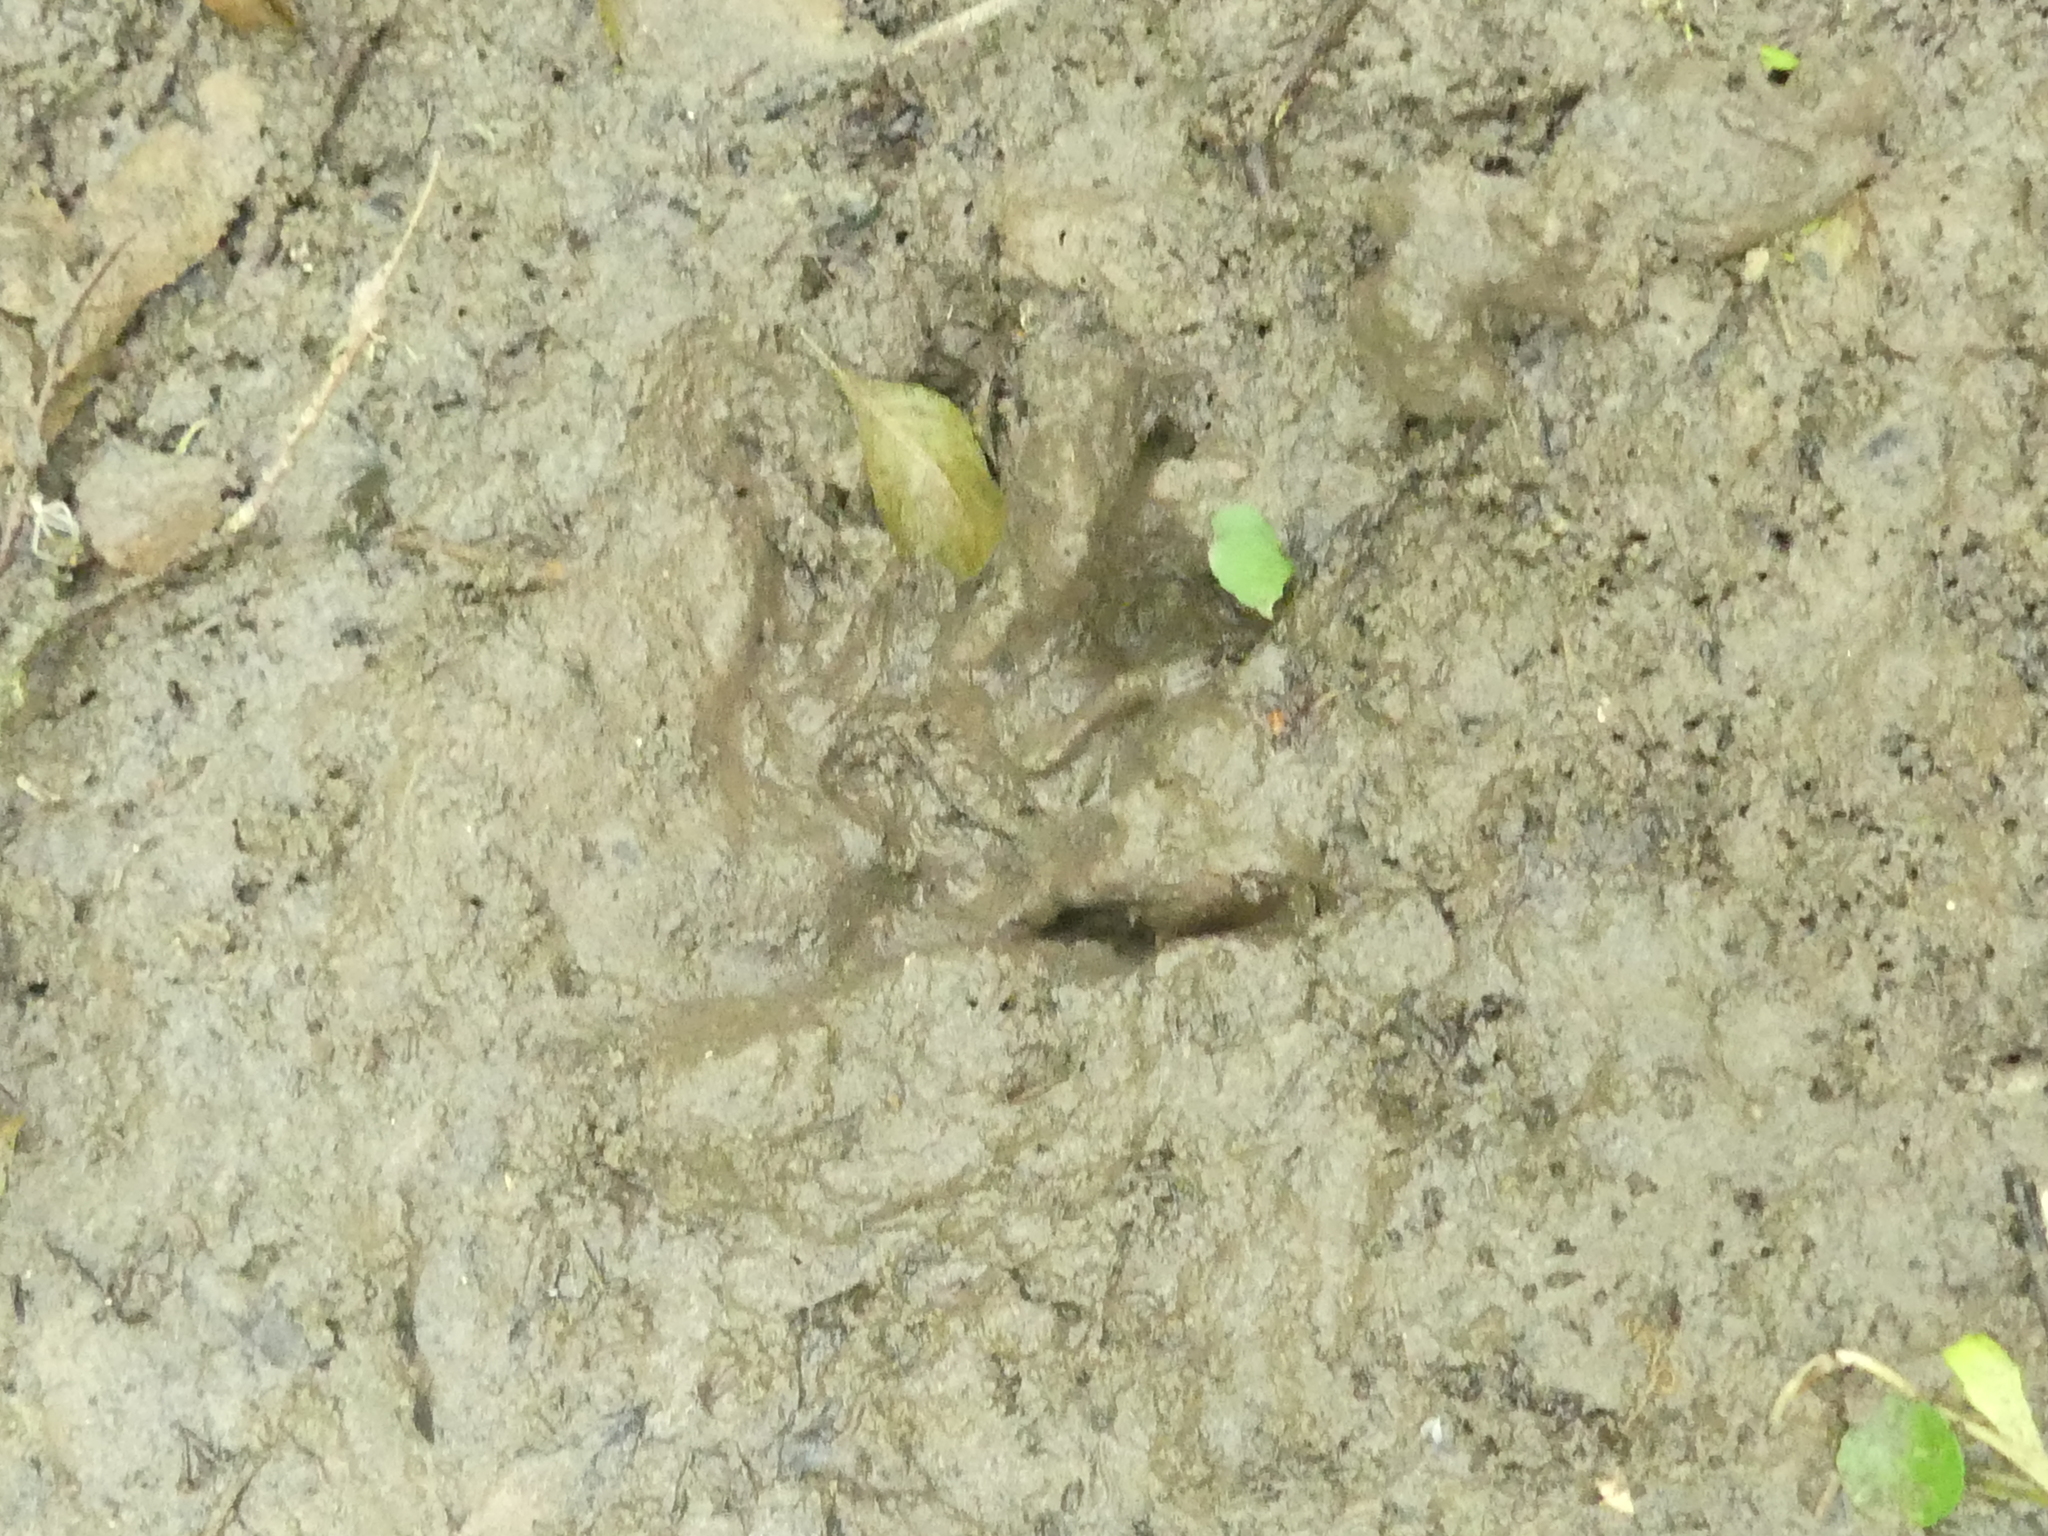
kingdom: Animalia
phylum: Chordata
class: Mammalia
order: Carnivora
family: Procyonidae
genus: Procyon
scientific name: Procyon lotor
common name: Raccoon
